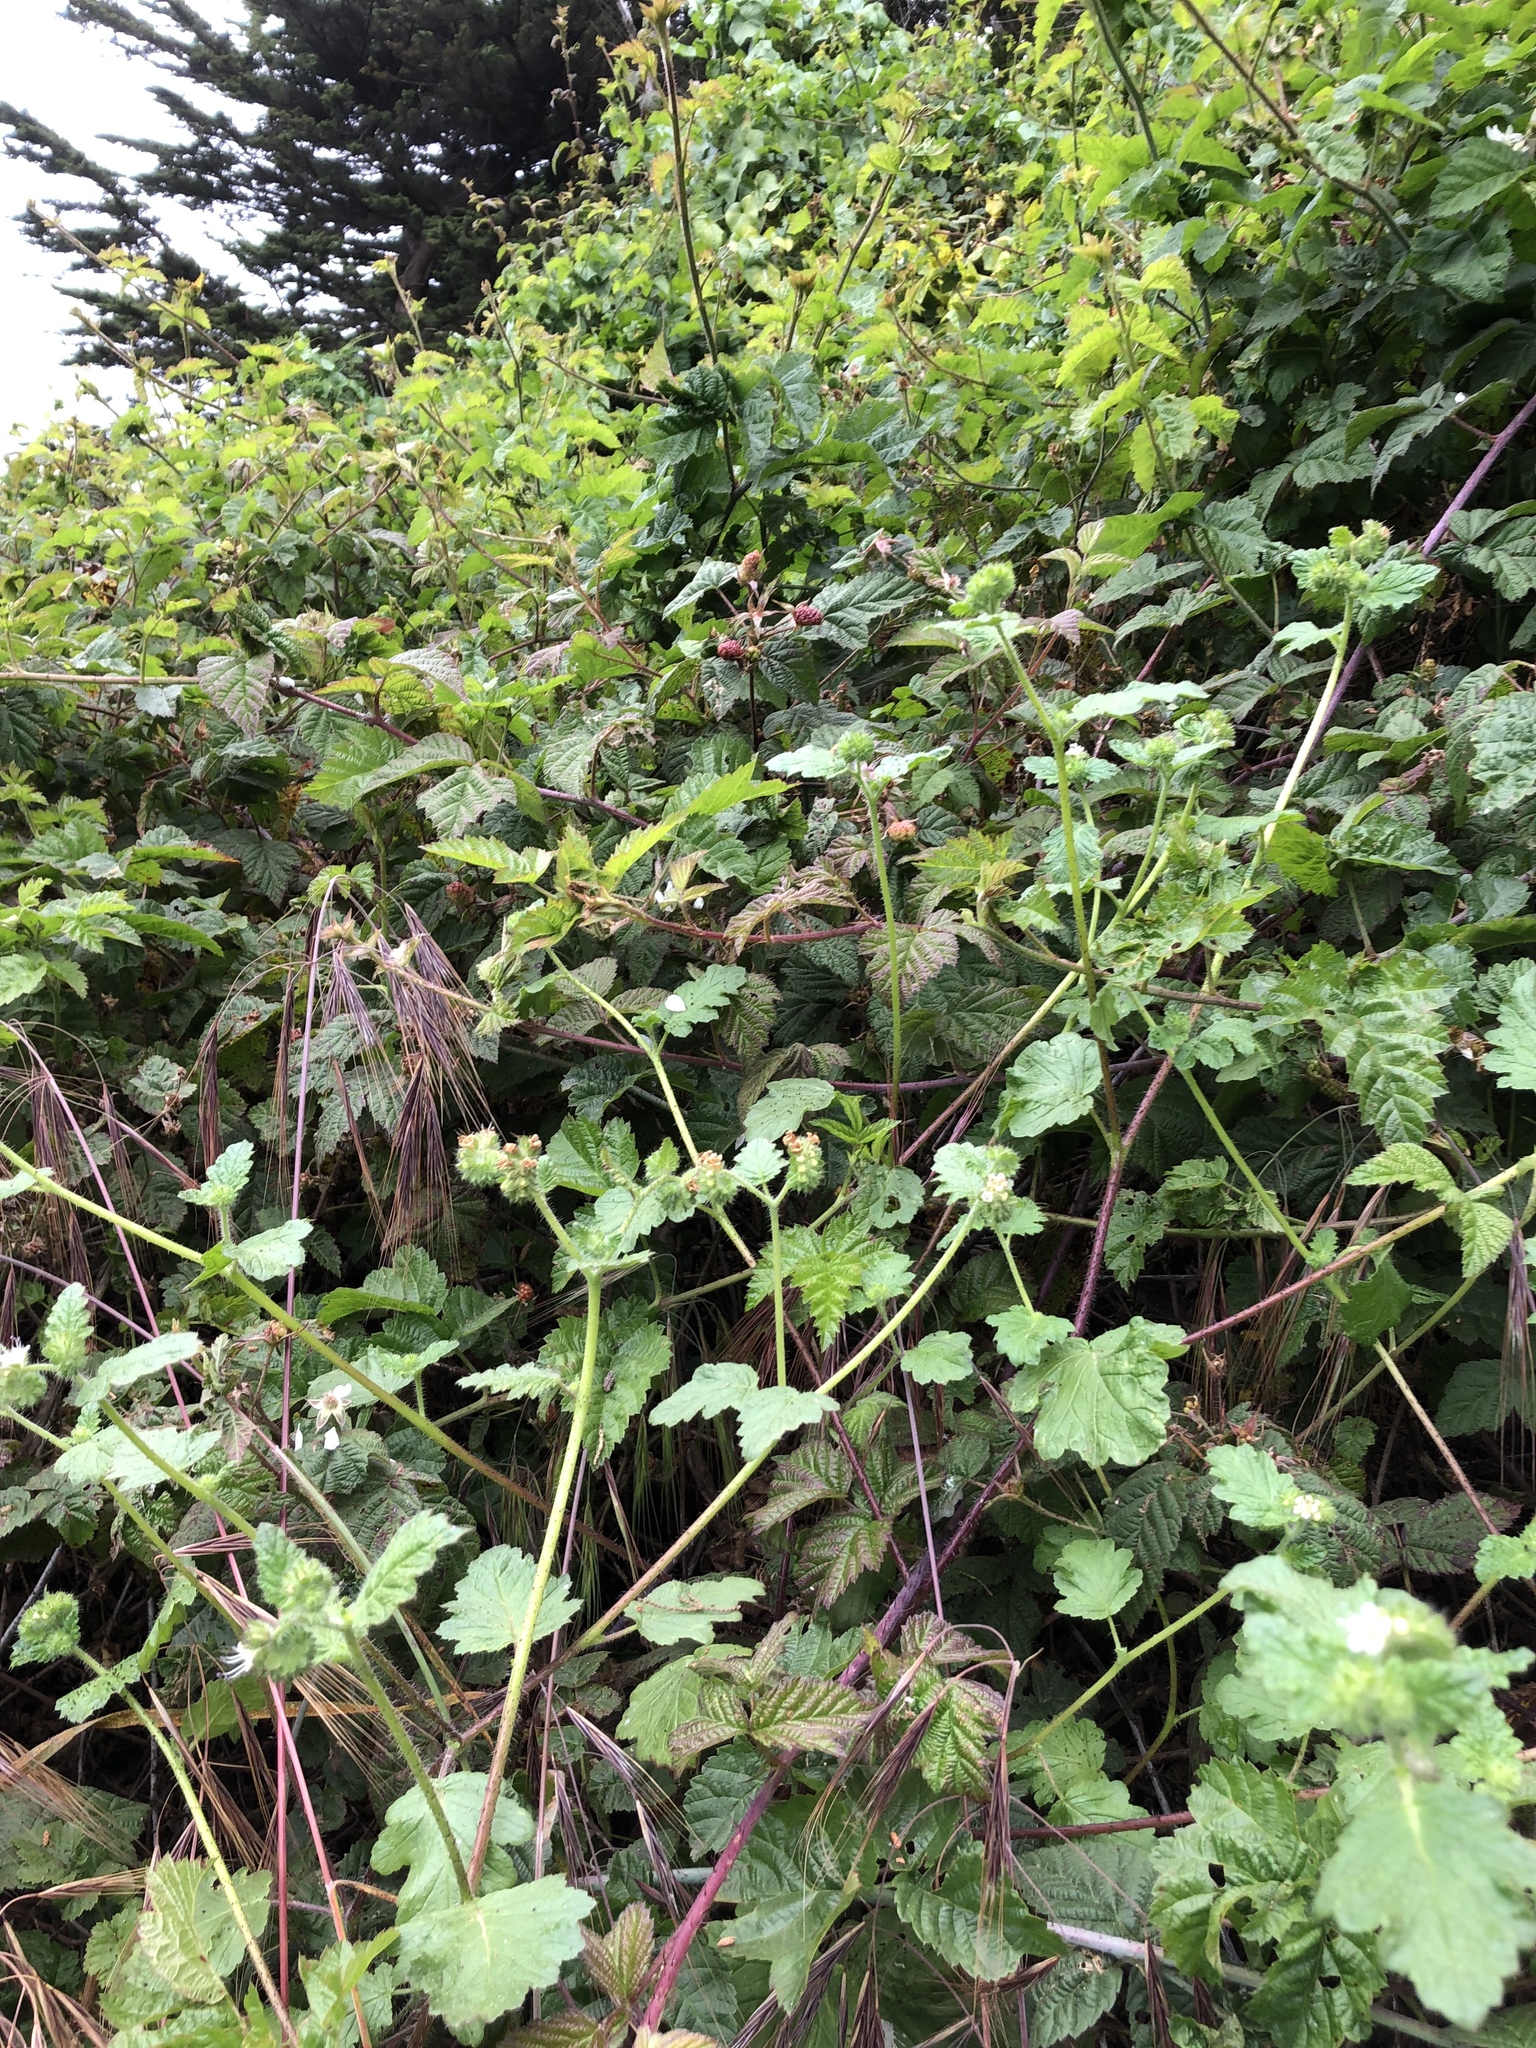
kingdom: Plantae
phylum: Tracheophyta
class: Magnoliopsida
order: Rosales
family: Rosaceae
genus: Rubus
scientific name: Rubus ursinus
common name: Pacific blackberry
